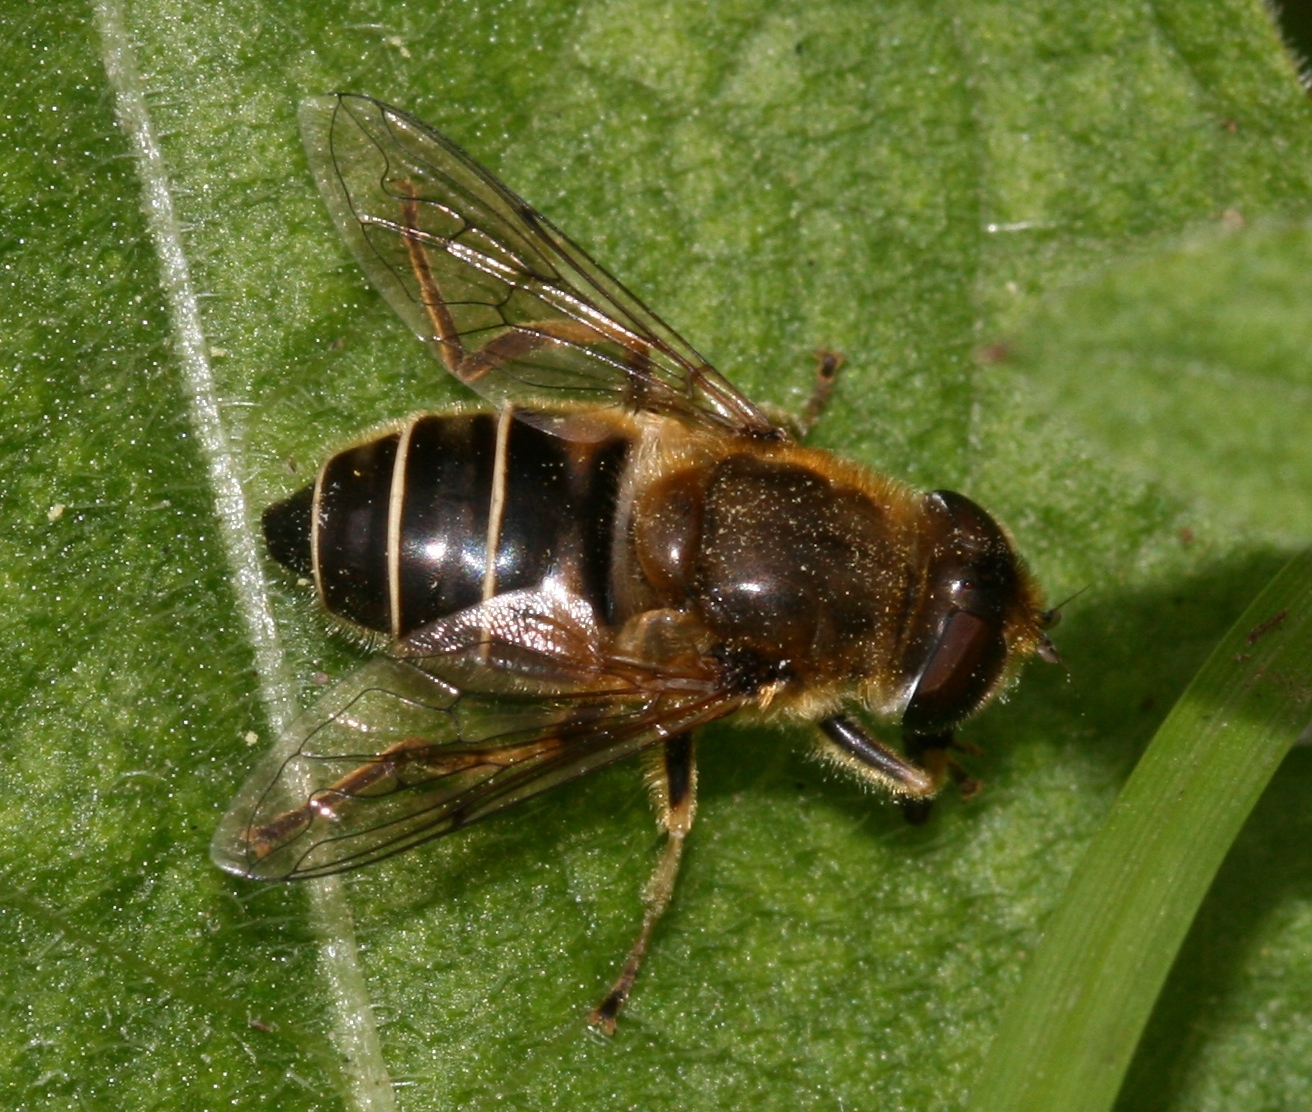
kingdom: Animalia
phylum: Arthropoda
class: Insecta
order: Diptera
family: Syrphidae
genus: Eristalis
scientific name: Eristalis nemorum
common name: Orange-spined drone fly
